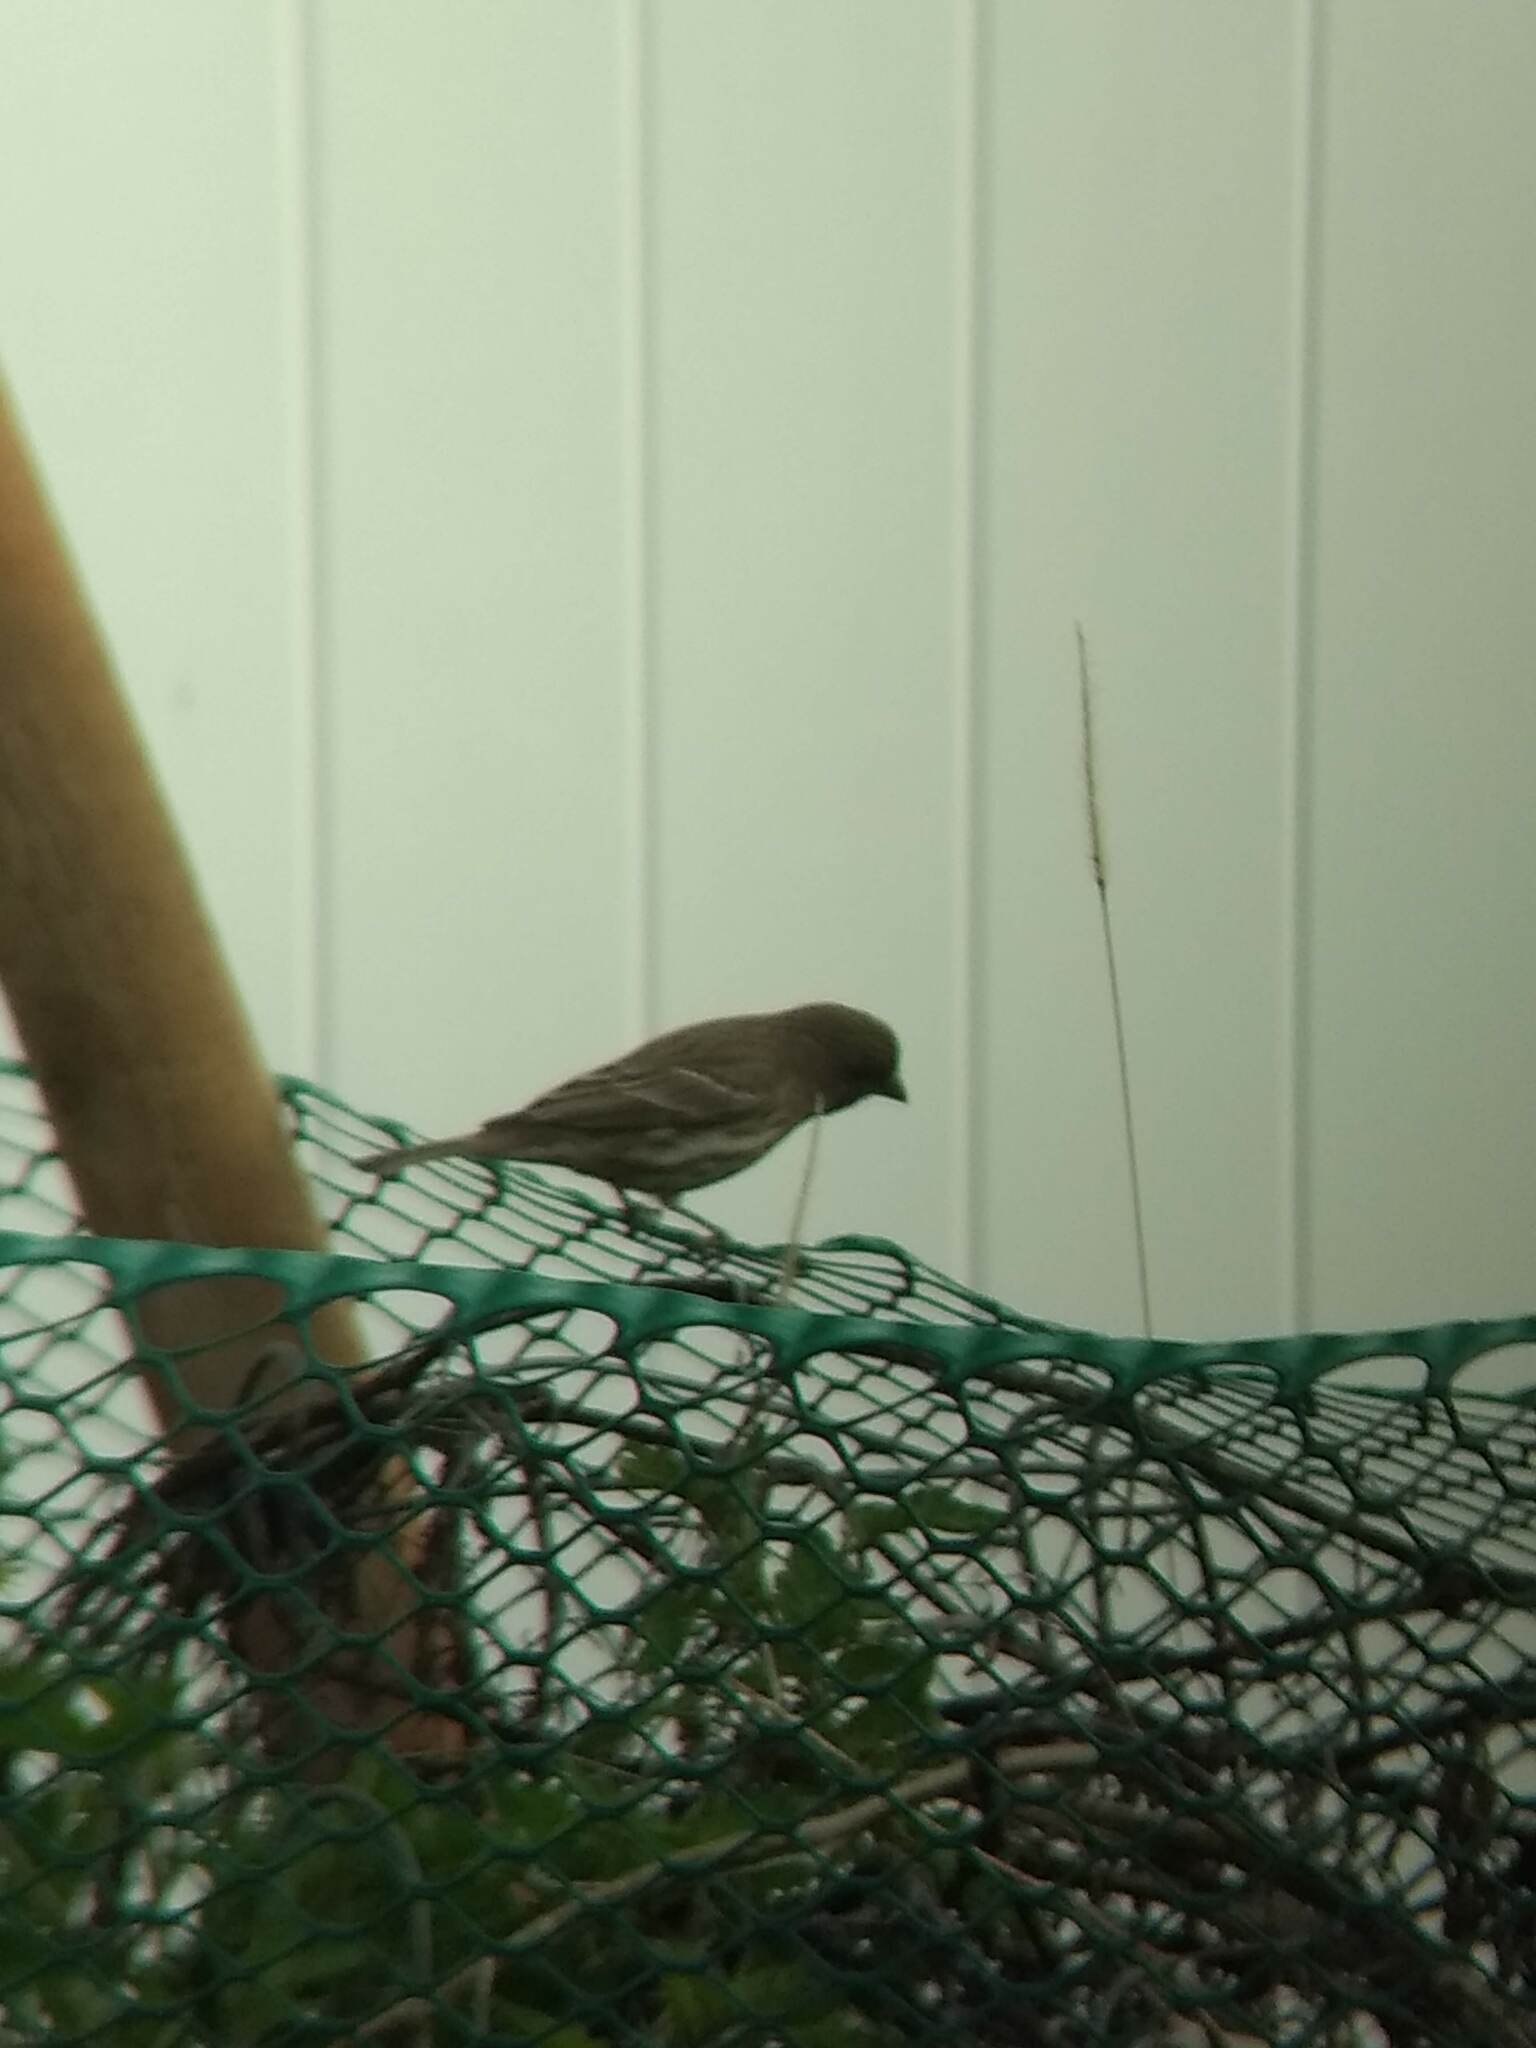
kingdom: Animalia
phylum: Chordata
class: Aves
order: Passeriformes
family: Fringillidae
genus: Haemorhous
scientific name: Haemorhous mexicanus
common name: House finch
